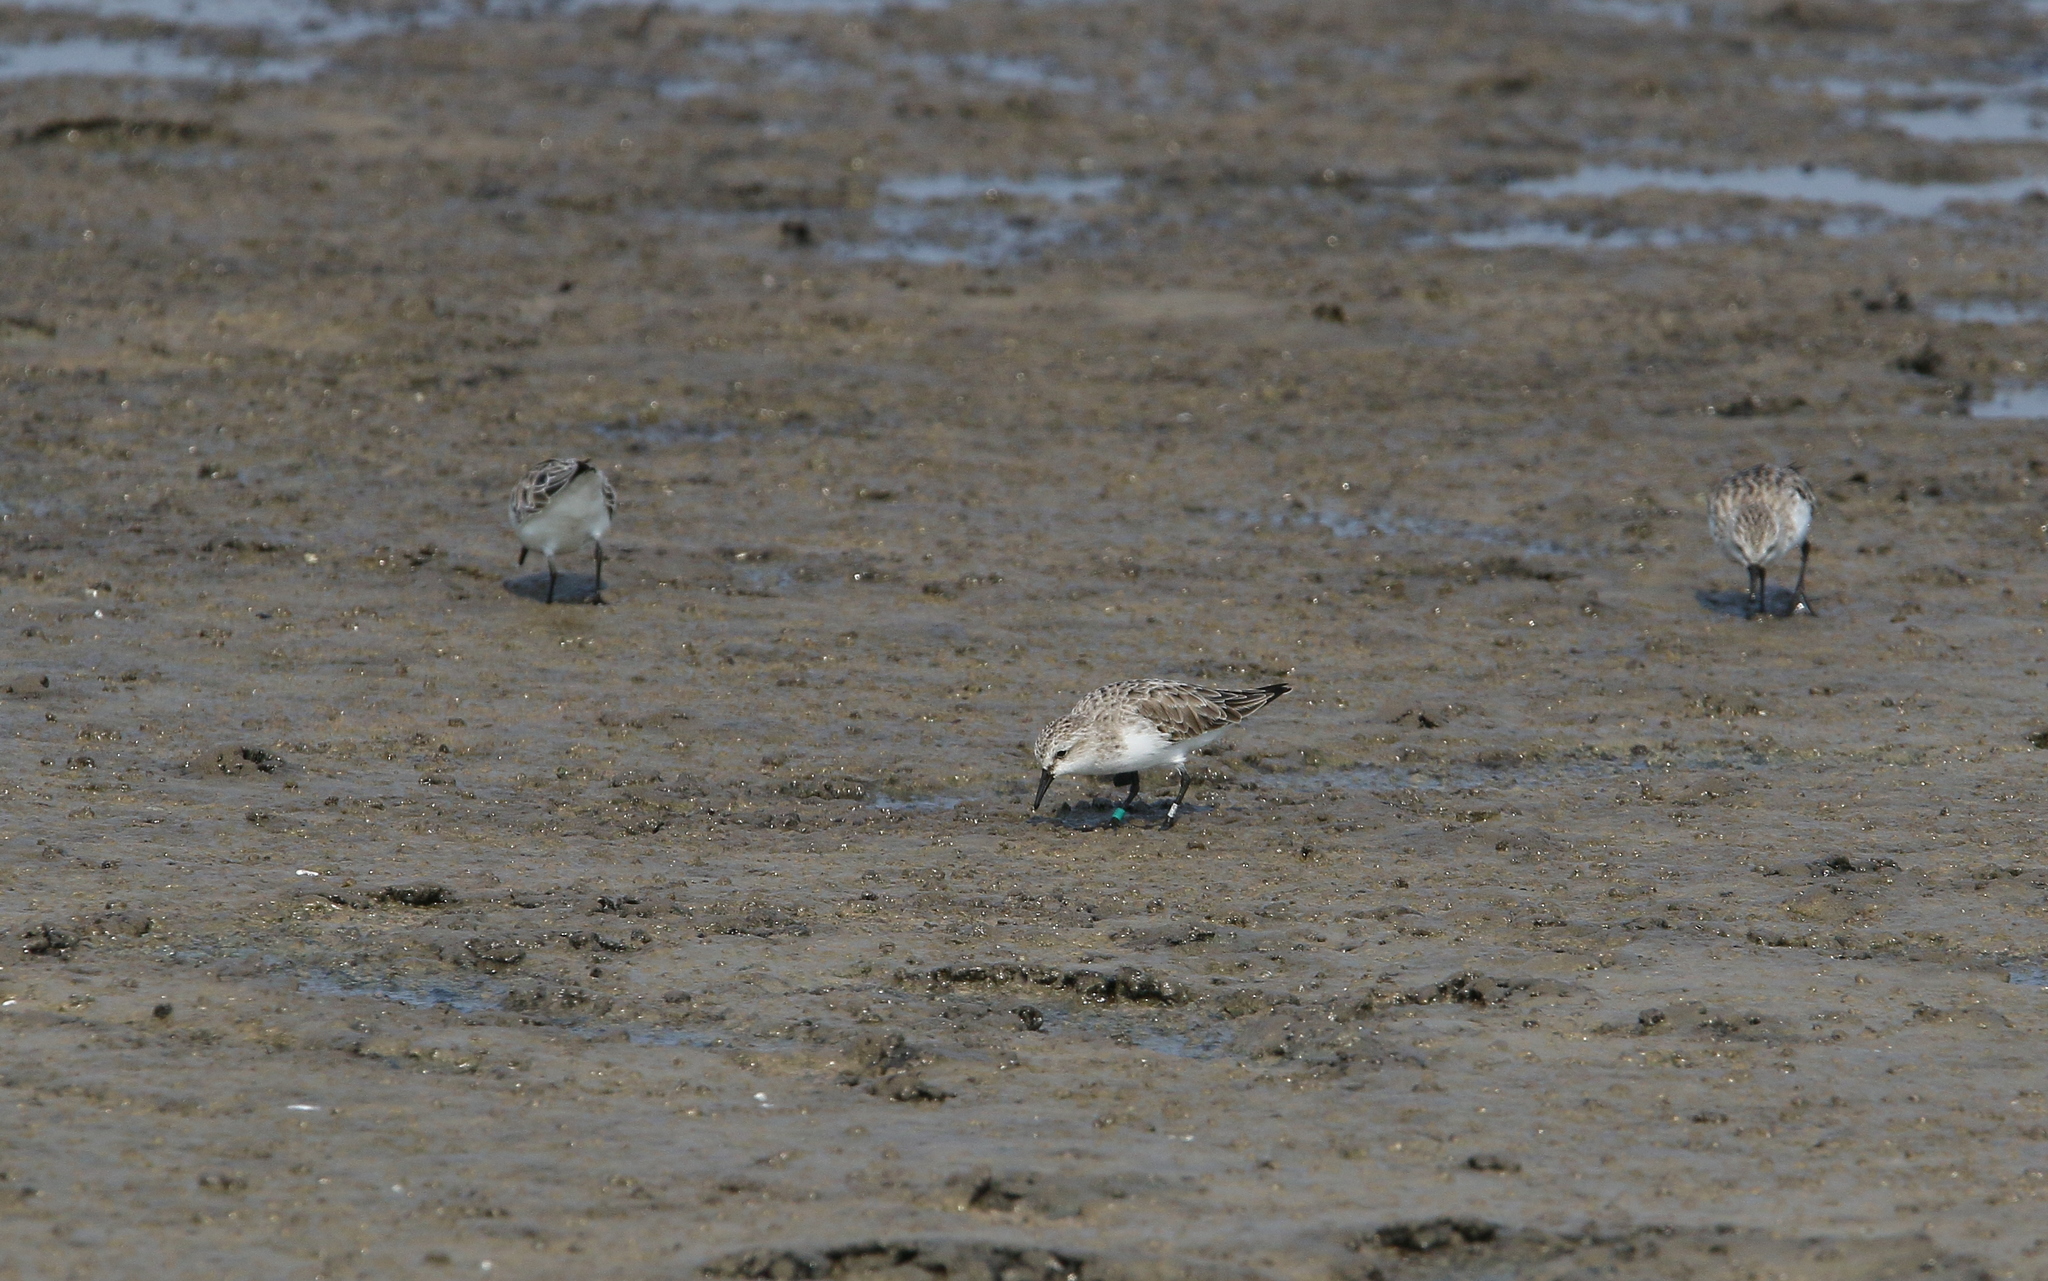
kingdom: Animalia
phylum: Chordata
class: Aves
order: Charadriiformes
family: Scolopacidae
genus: Calidris
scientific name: Calidris ruficollis
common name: Red-necked stint
